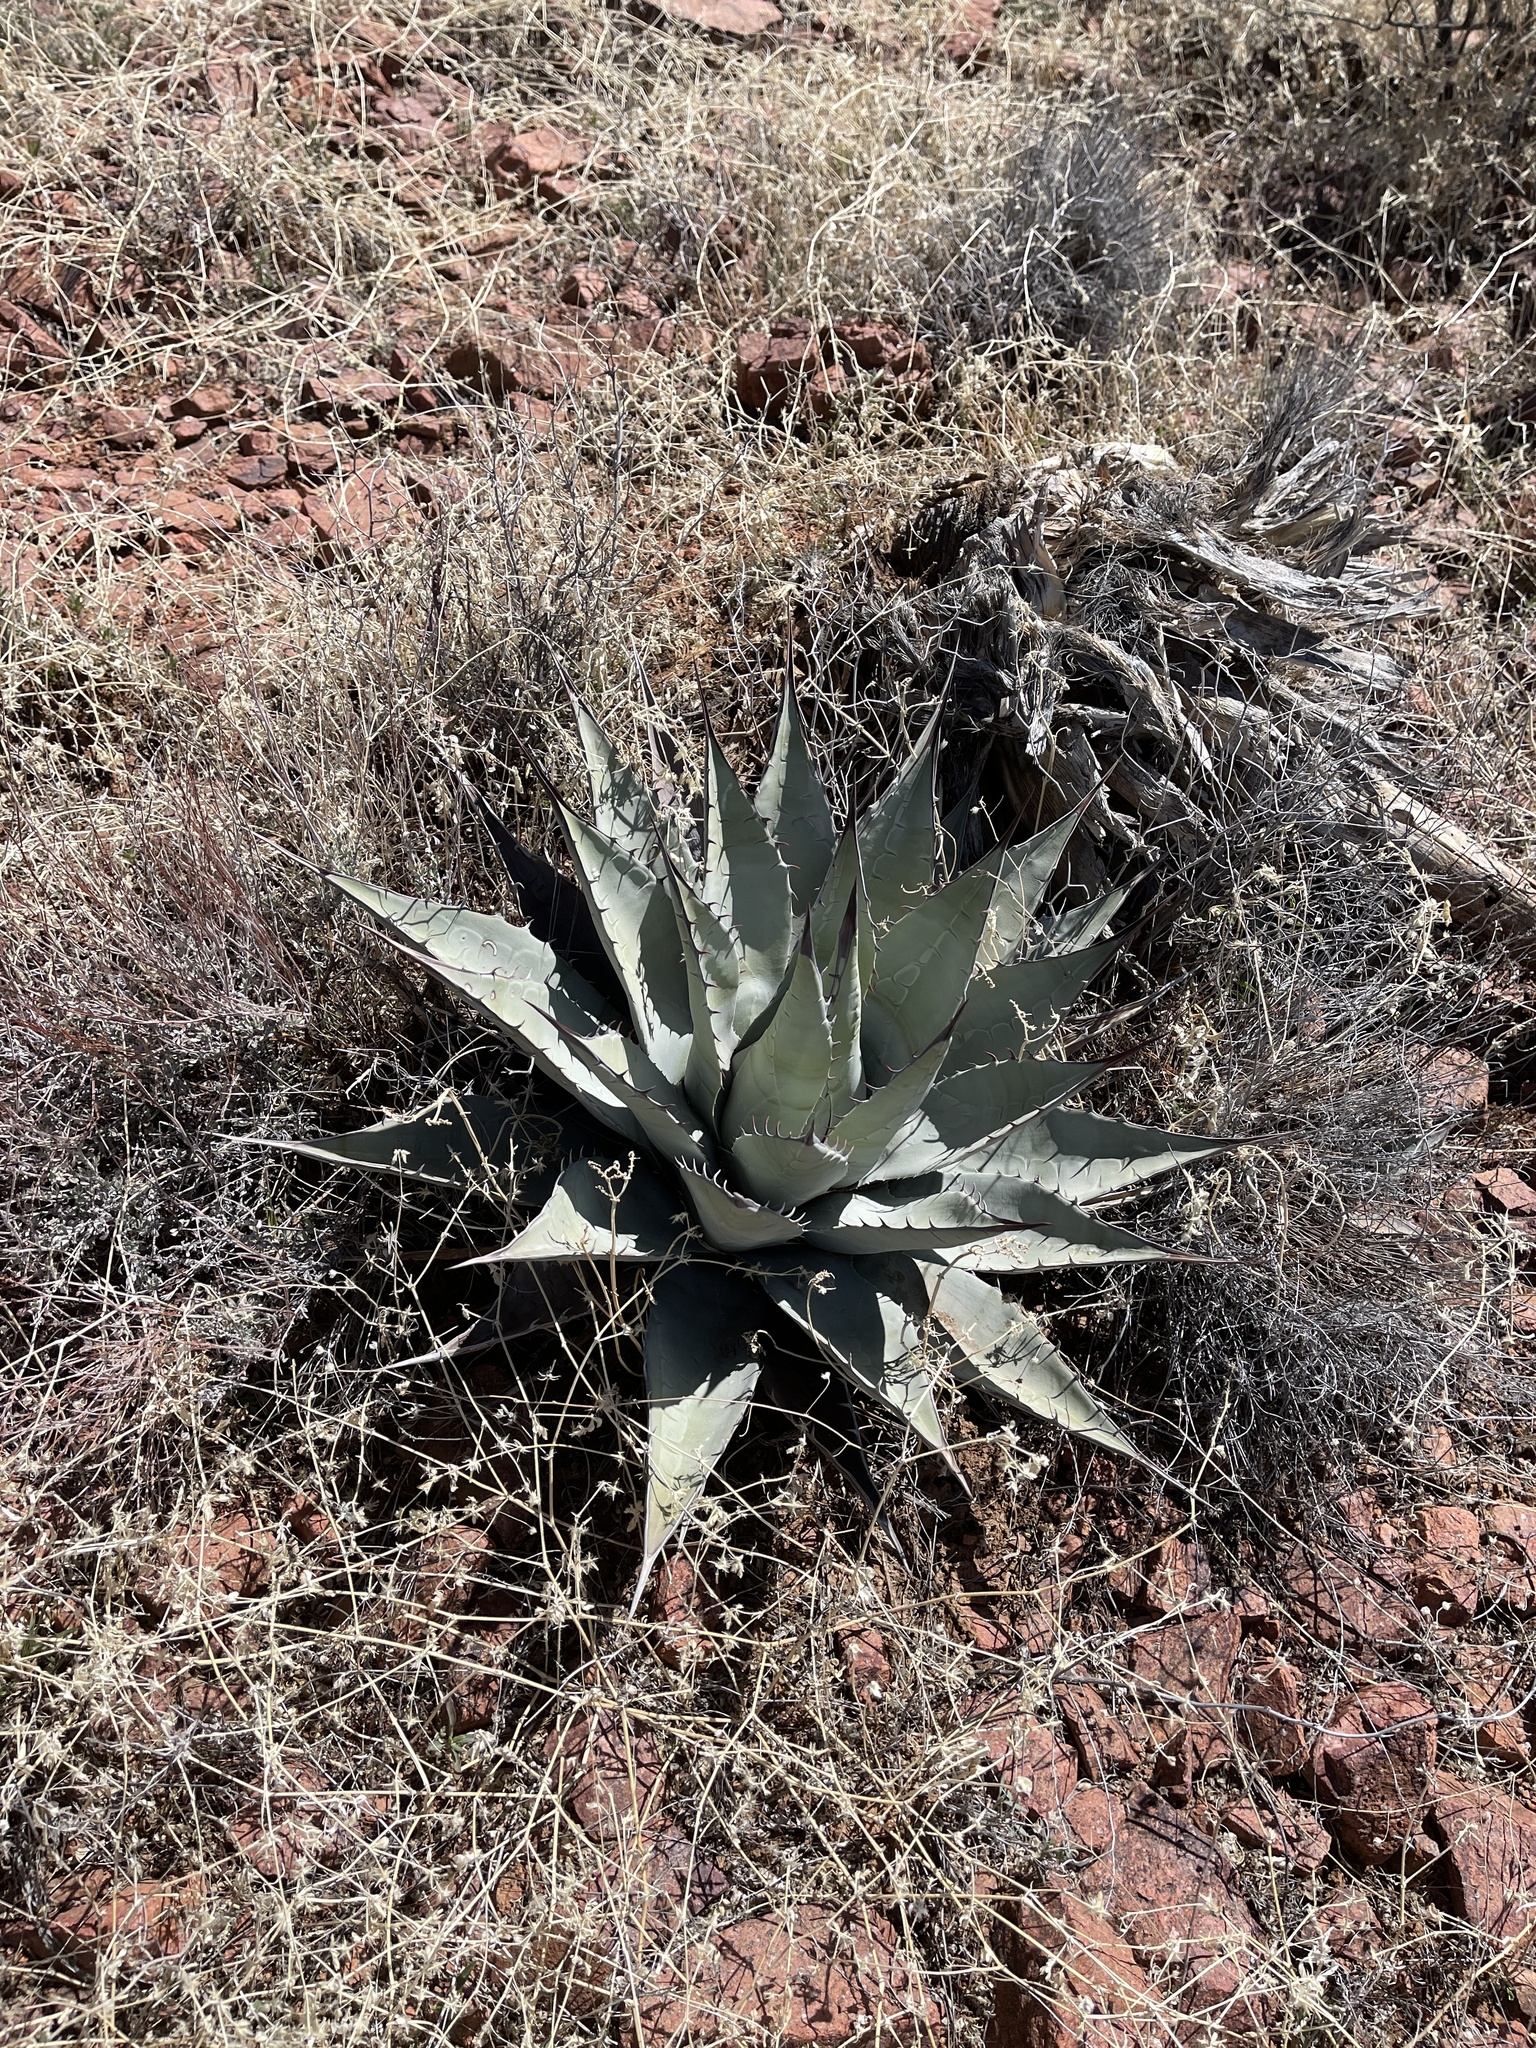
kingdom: Plantae
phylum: Tracheophyta
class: Liliopsida
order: Asparagales
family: Asparagaceae
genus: Agave
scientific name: Agave parryi
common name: Parry's agave
